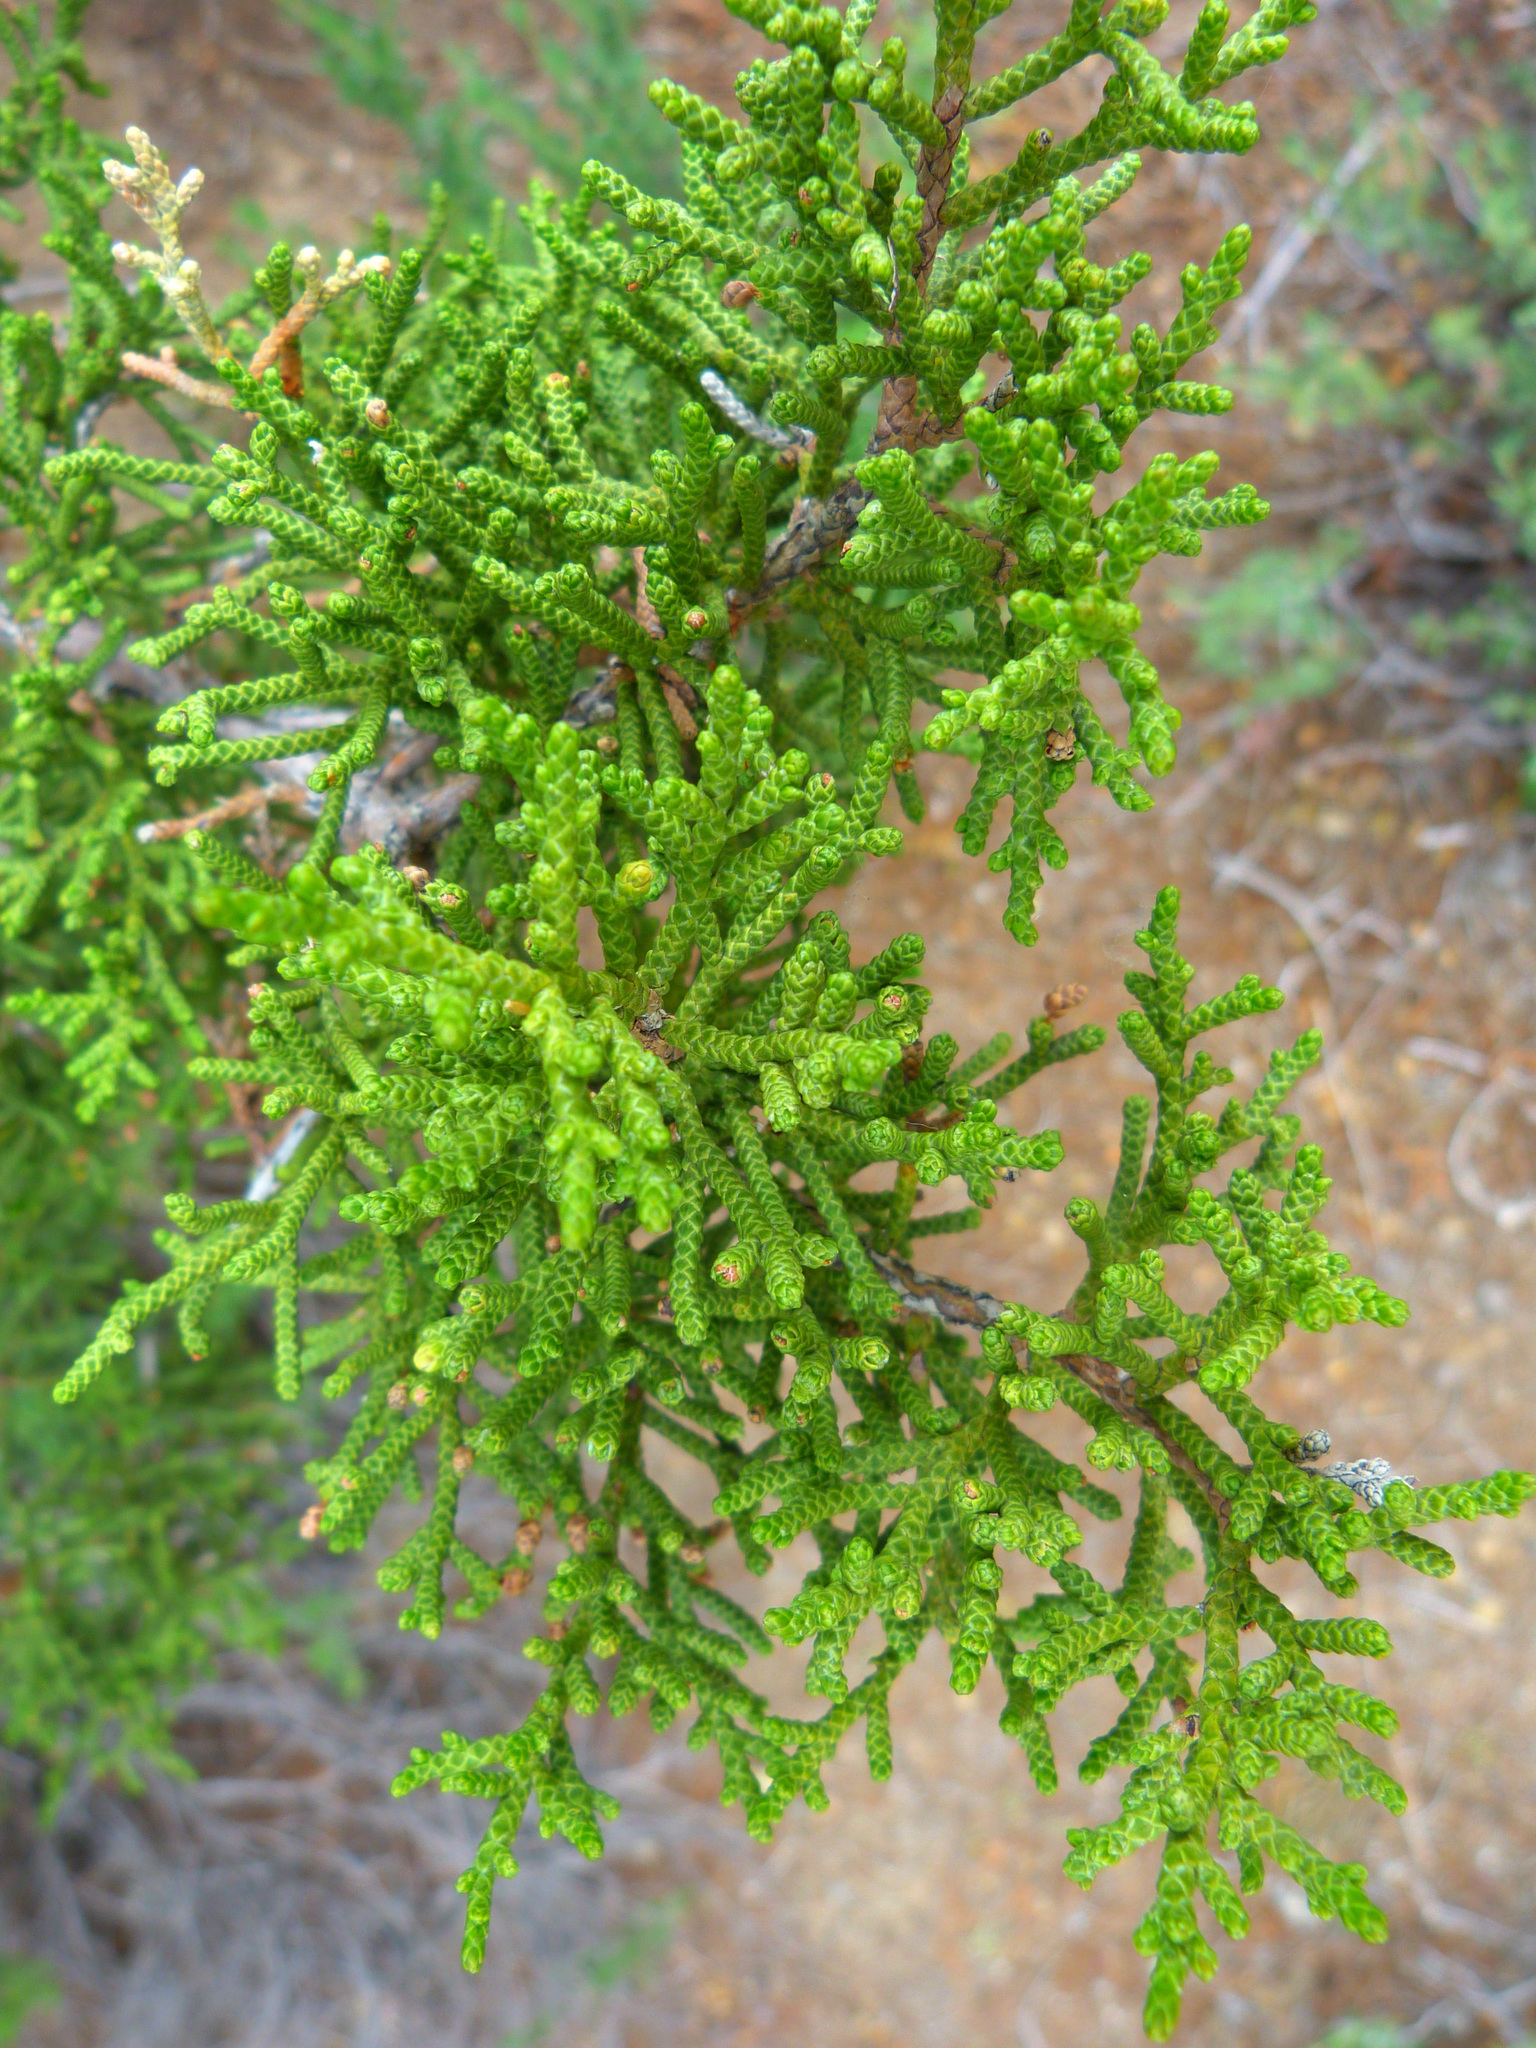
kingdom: Plantae
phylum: Tracheophyta
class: Pinopsida
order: Pinales
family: Cupressaceae
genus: Juniperus
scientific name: Juniperus californica
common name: California juniper
